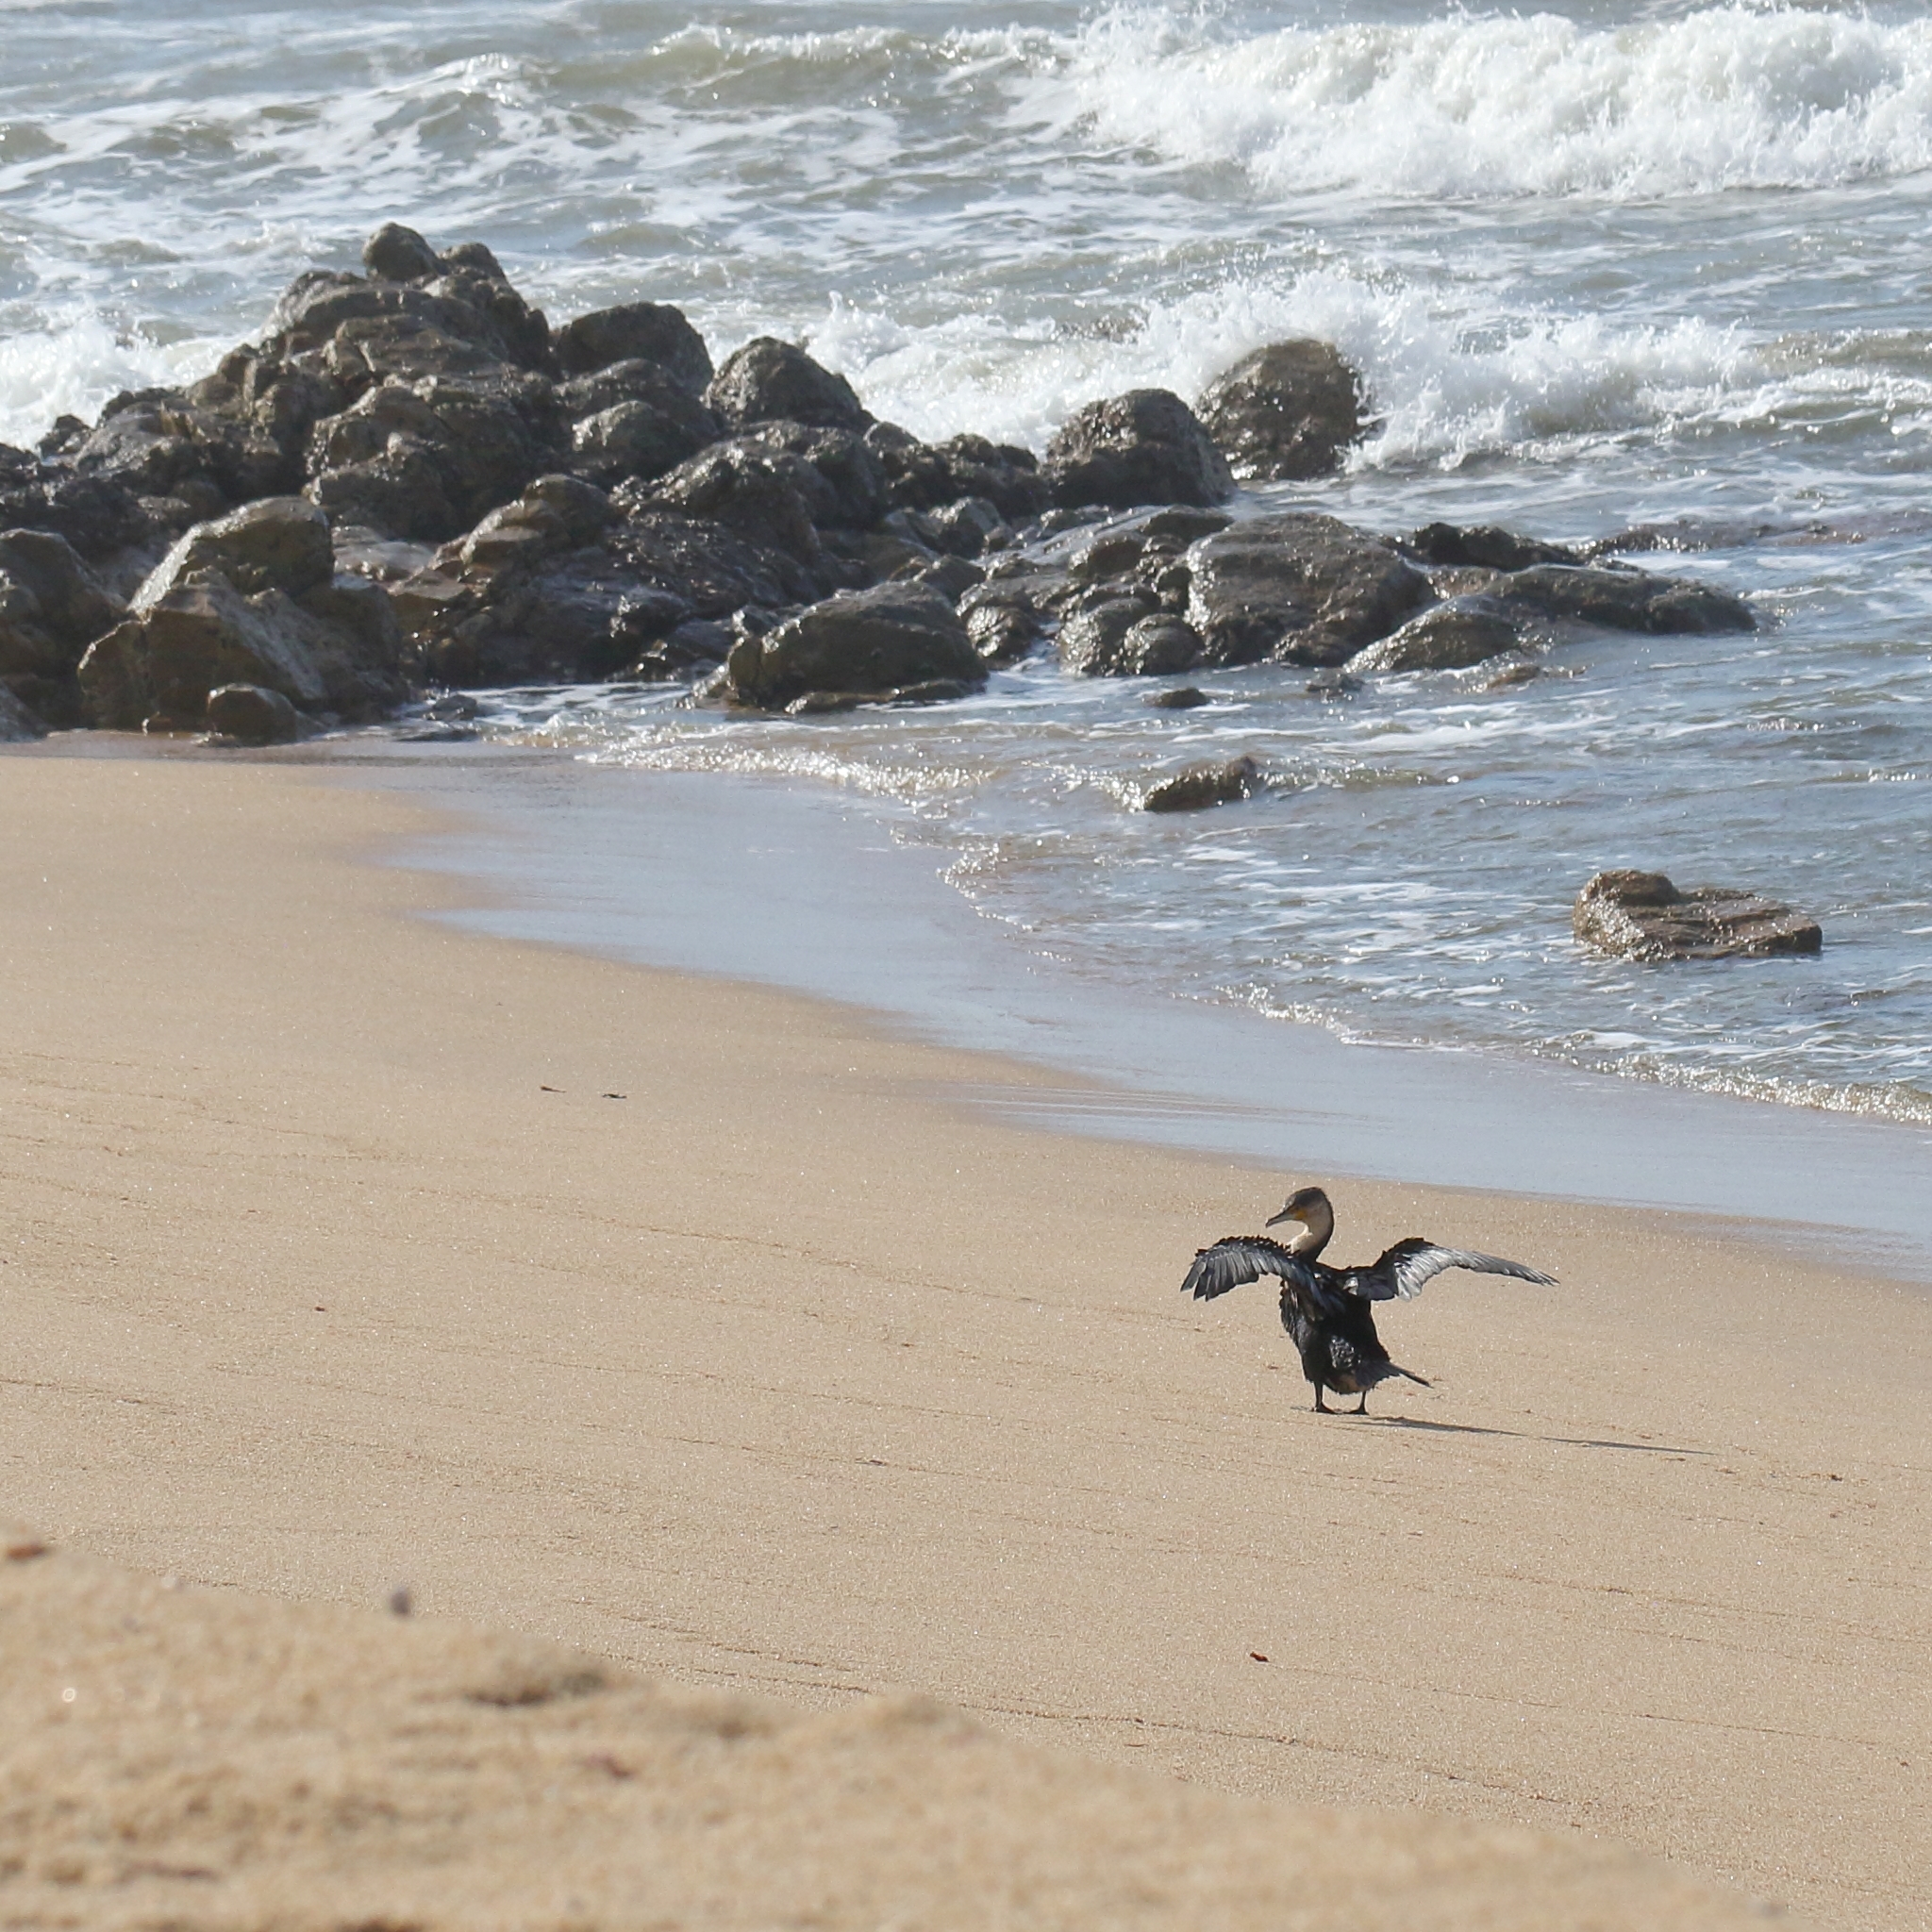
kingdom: Animalia
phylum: Chordata
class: Aves
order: Suliformes
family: Phalacrocoracidae
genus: Phalacrocorax
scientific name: Phalacrocorax carbo
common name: Great cormorant
